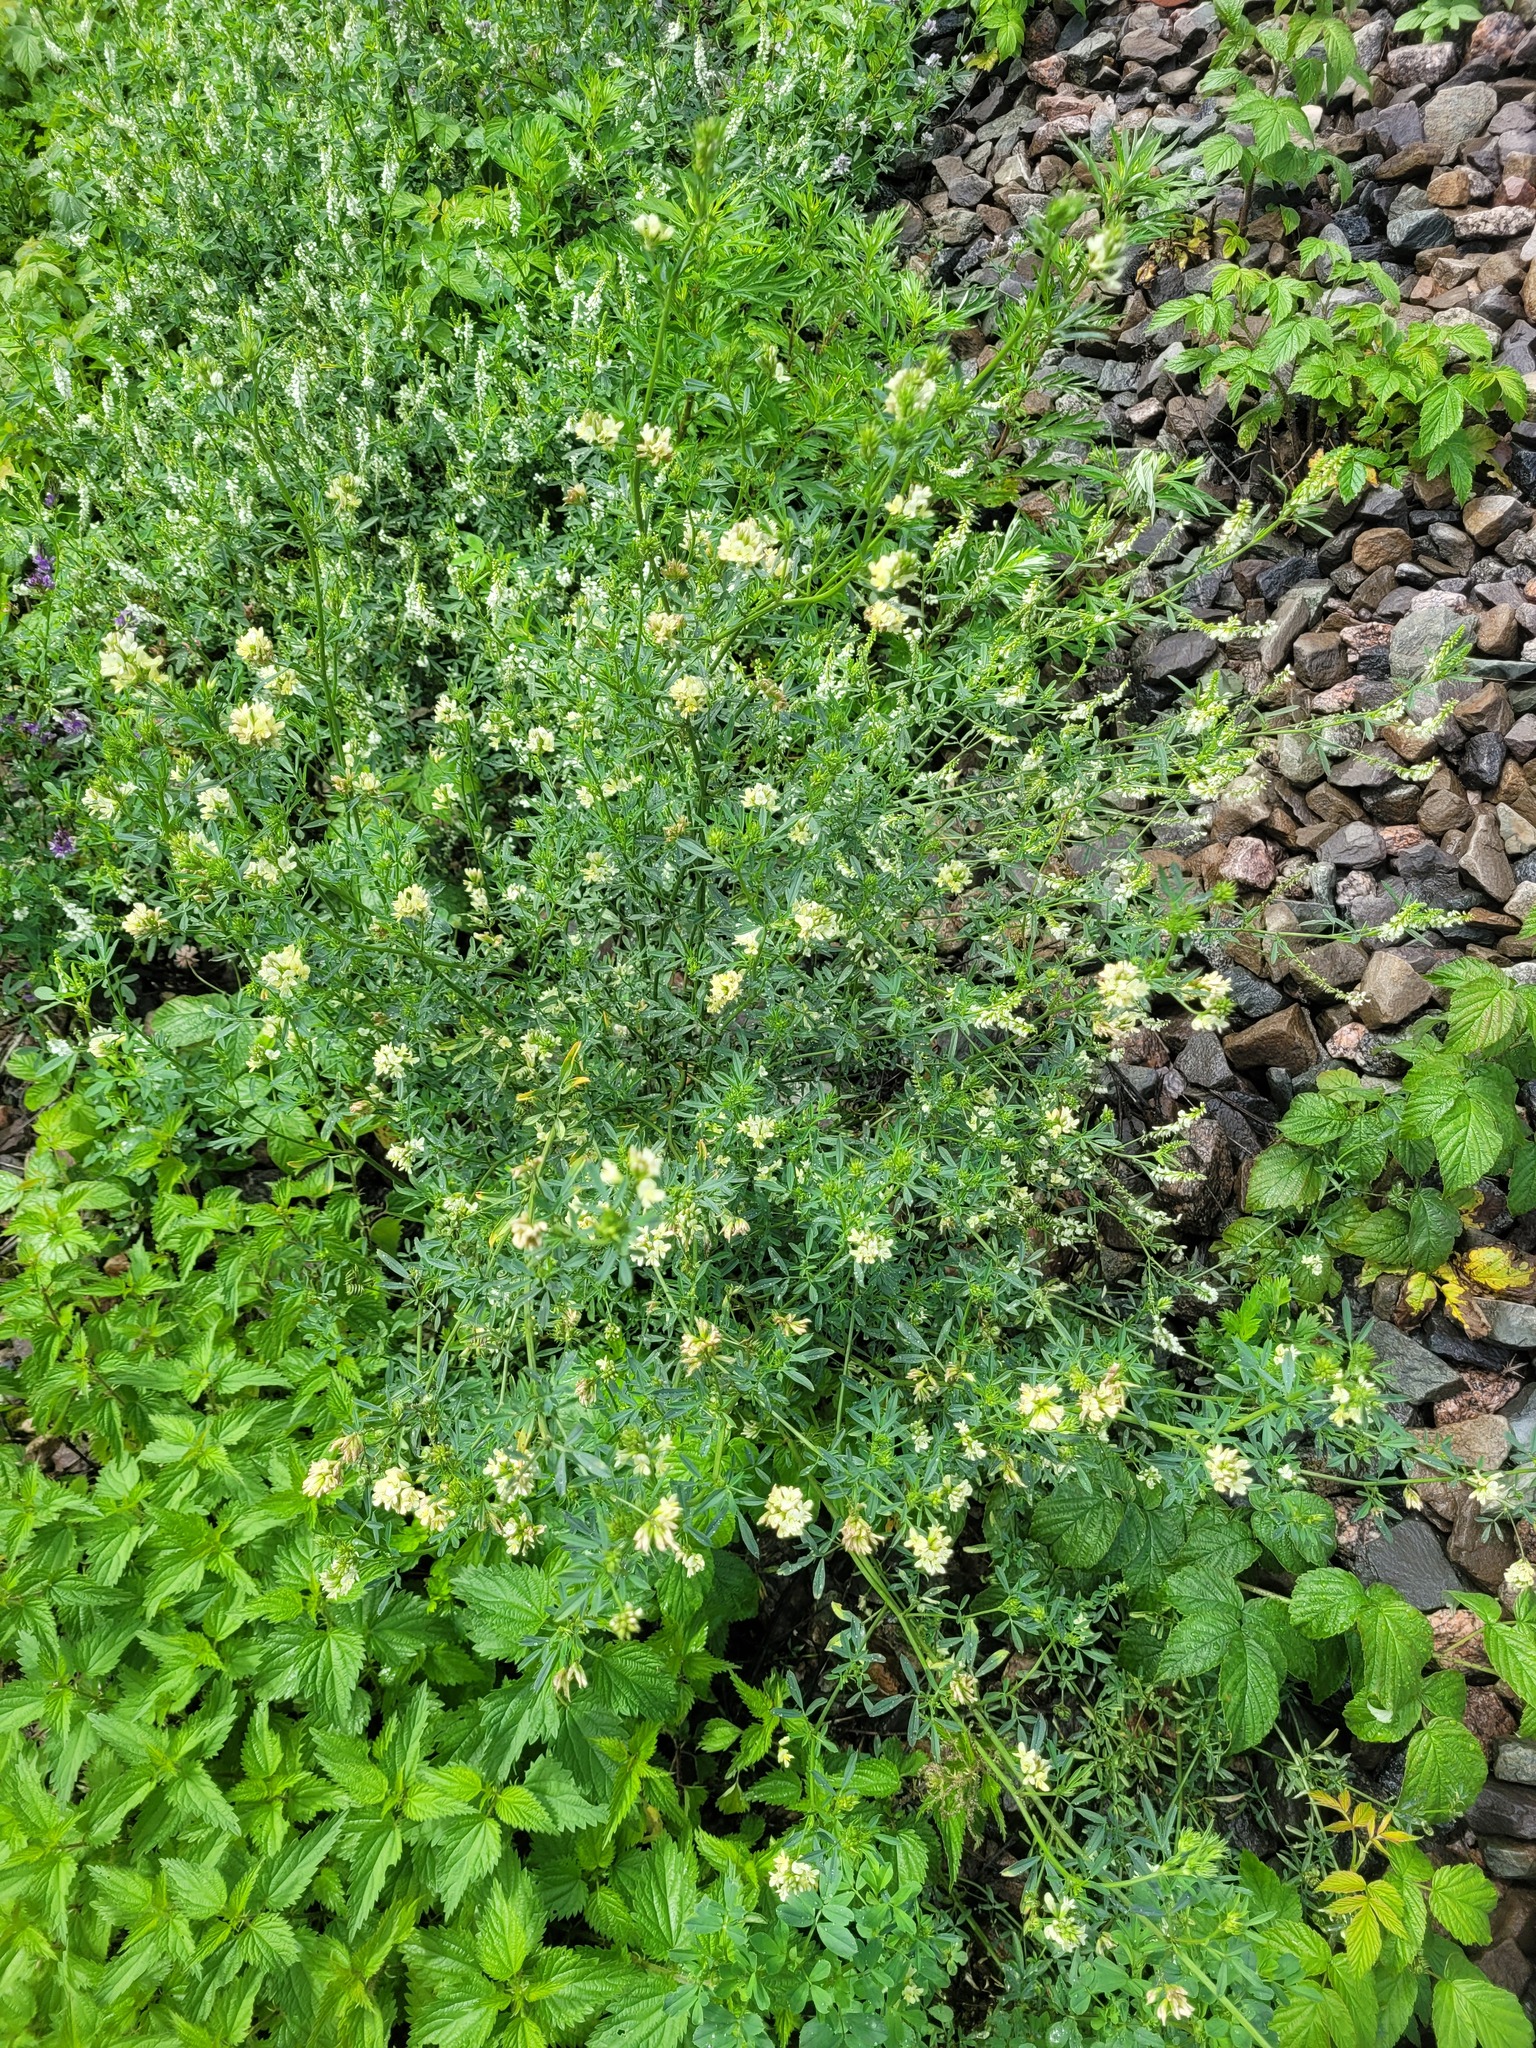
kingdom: Plantae
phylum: Tracheophyta
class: Magnoliopsida
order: Fabales
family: Fabaceae
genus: Medicago
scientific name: Medicago varia
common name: Sand lucerne
